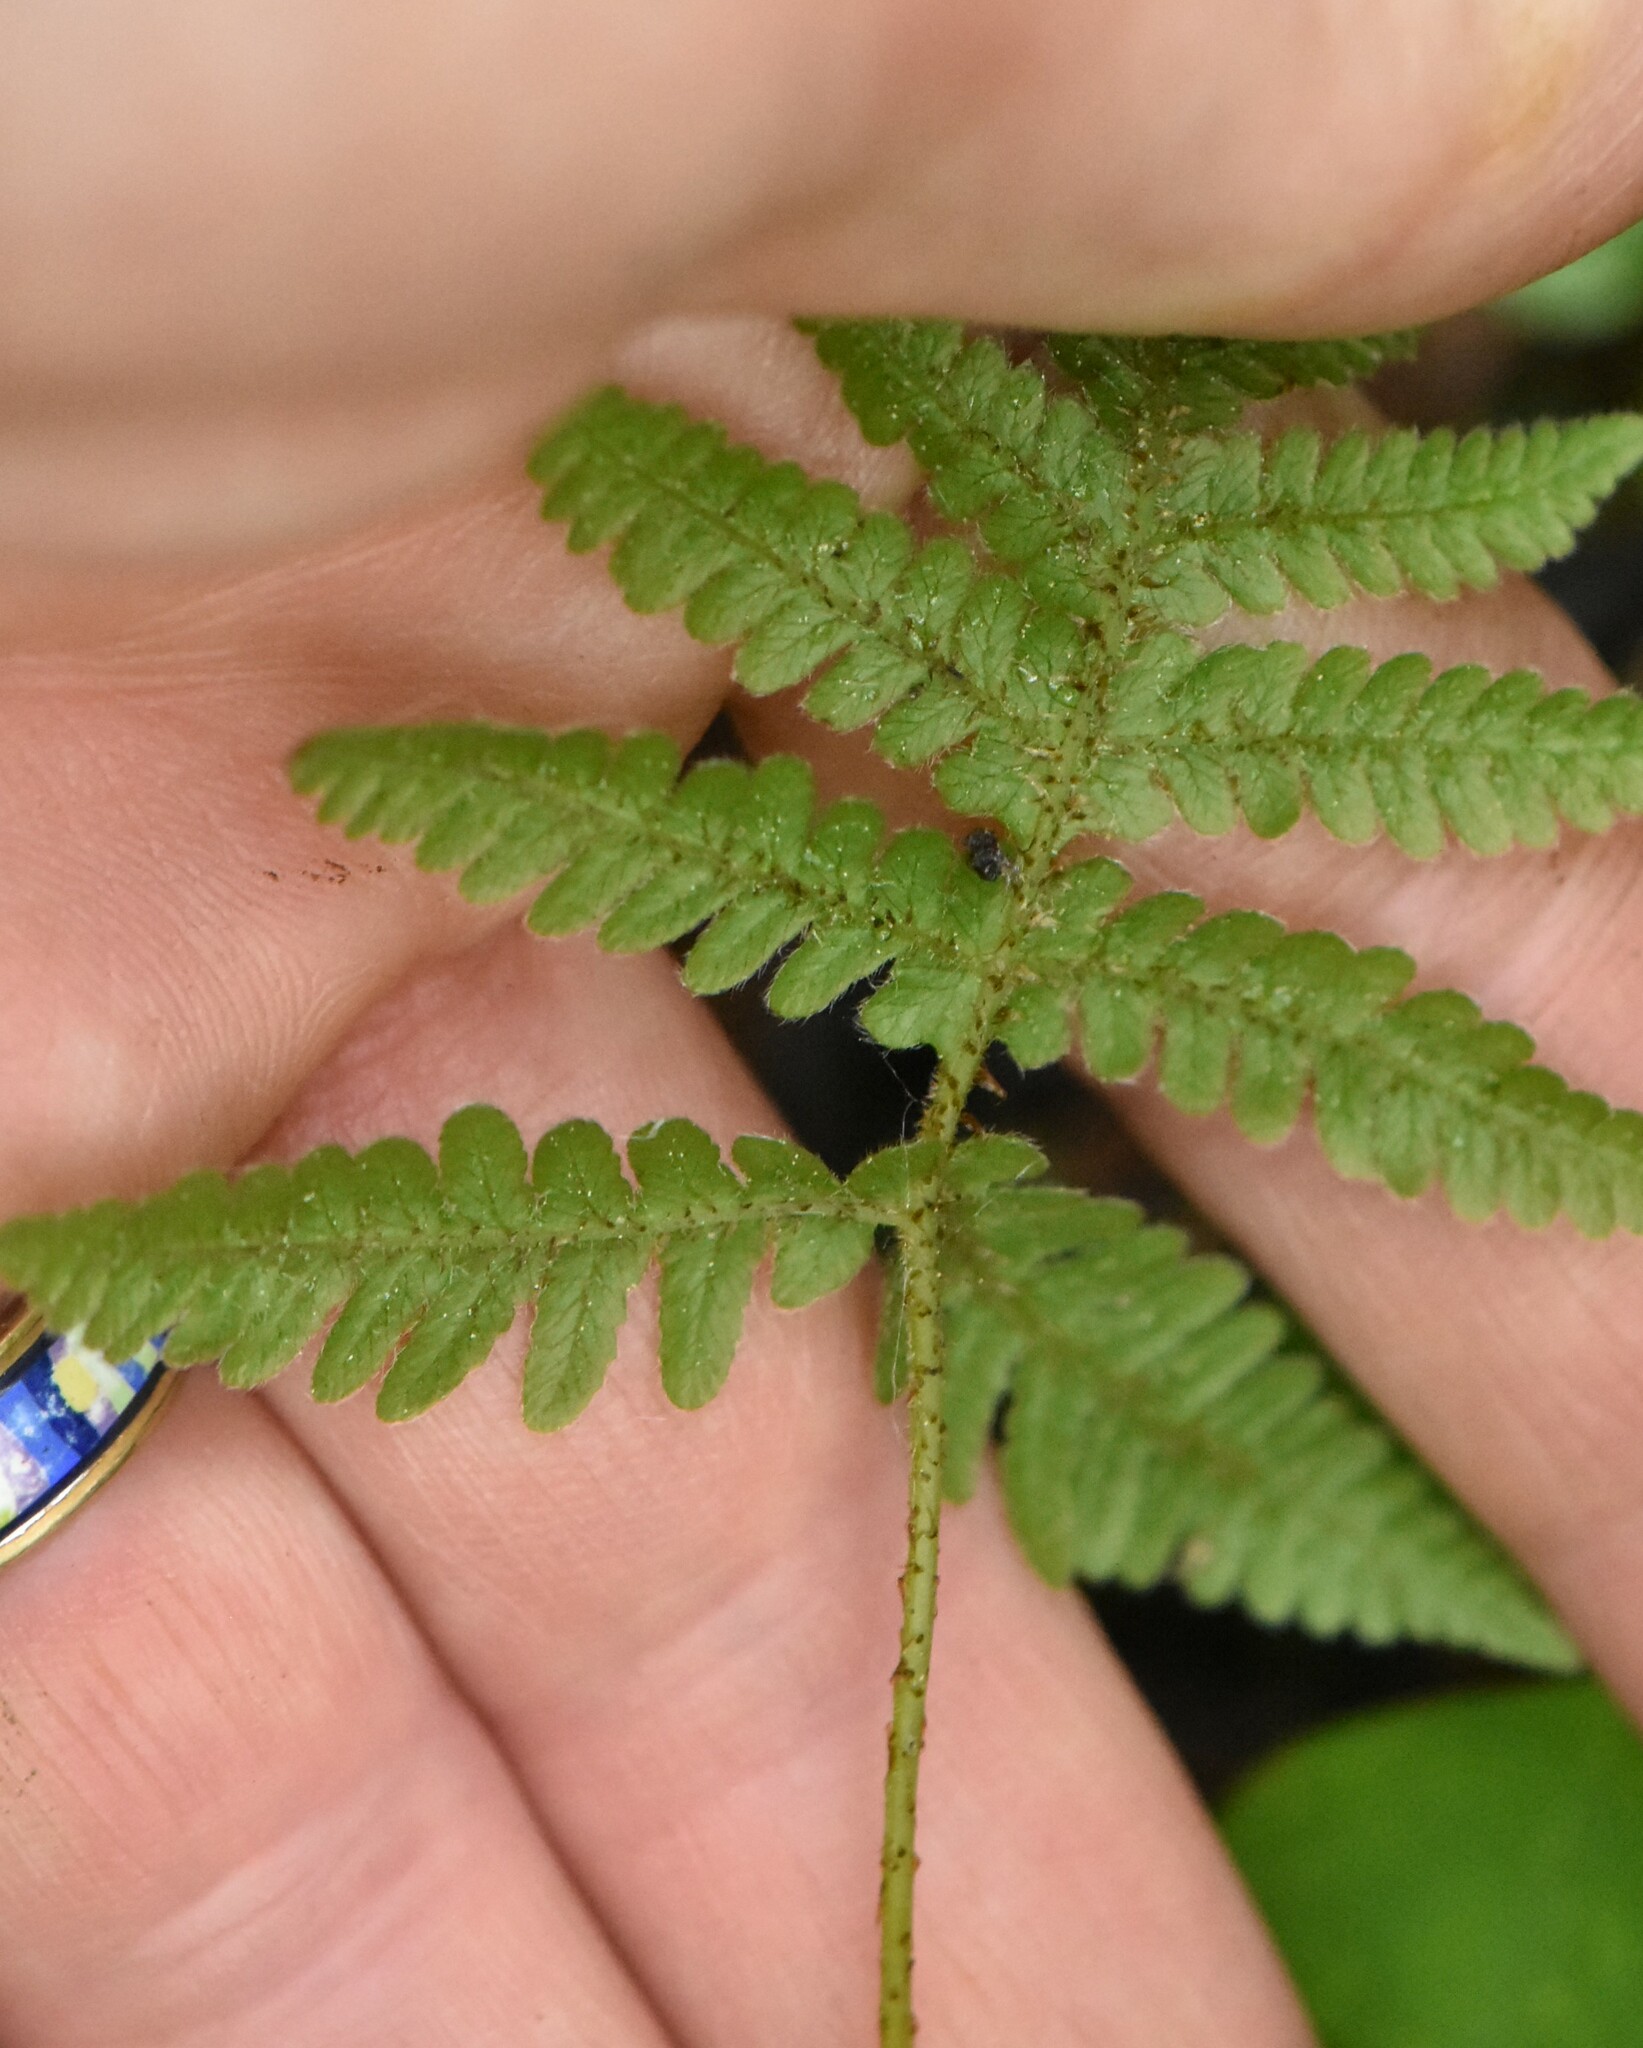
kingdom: Plantae
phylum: Tracheophyta
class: Polypodiopsida
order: Polypodiales
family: Thelypteridaceae
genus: Phegopteris
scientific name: Phegopteris connectilis
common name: Beech fern
